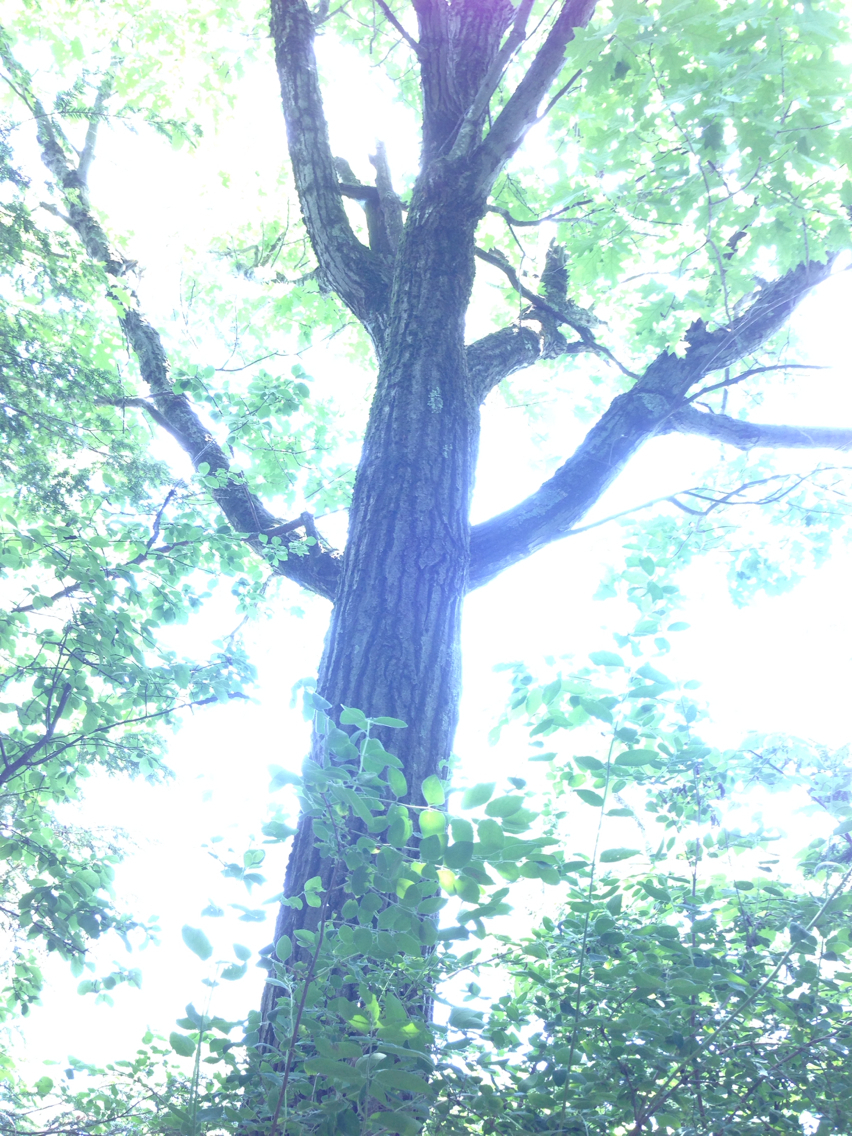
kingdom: Plantae
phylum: Tracheophyta
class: Magnoliopsida
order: Fagales
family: Fagaceae
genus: Quercus
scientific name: Quercus rubra
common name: Red oak
